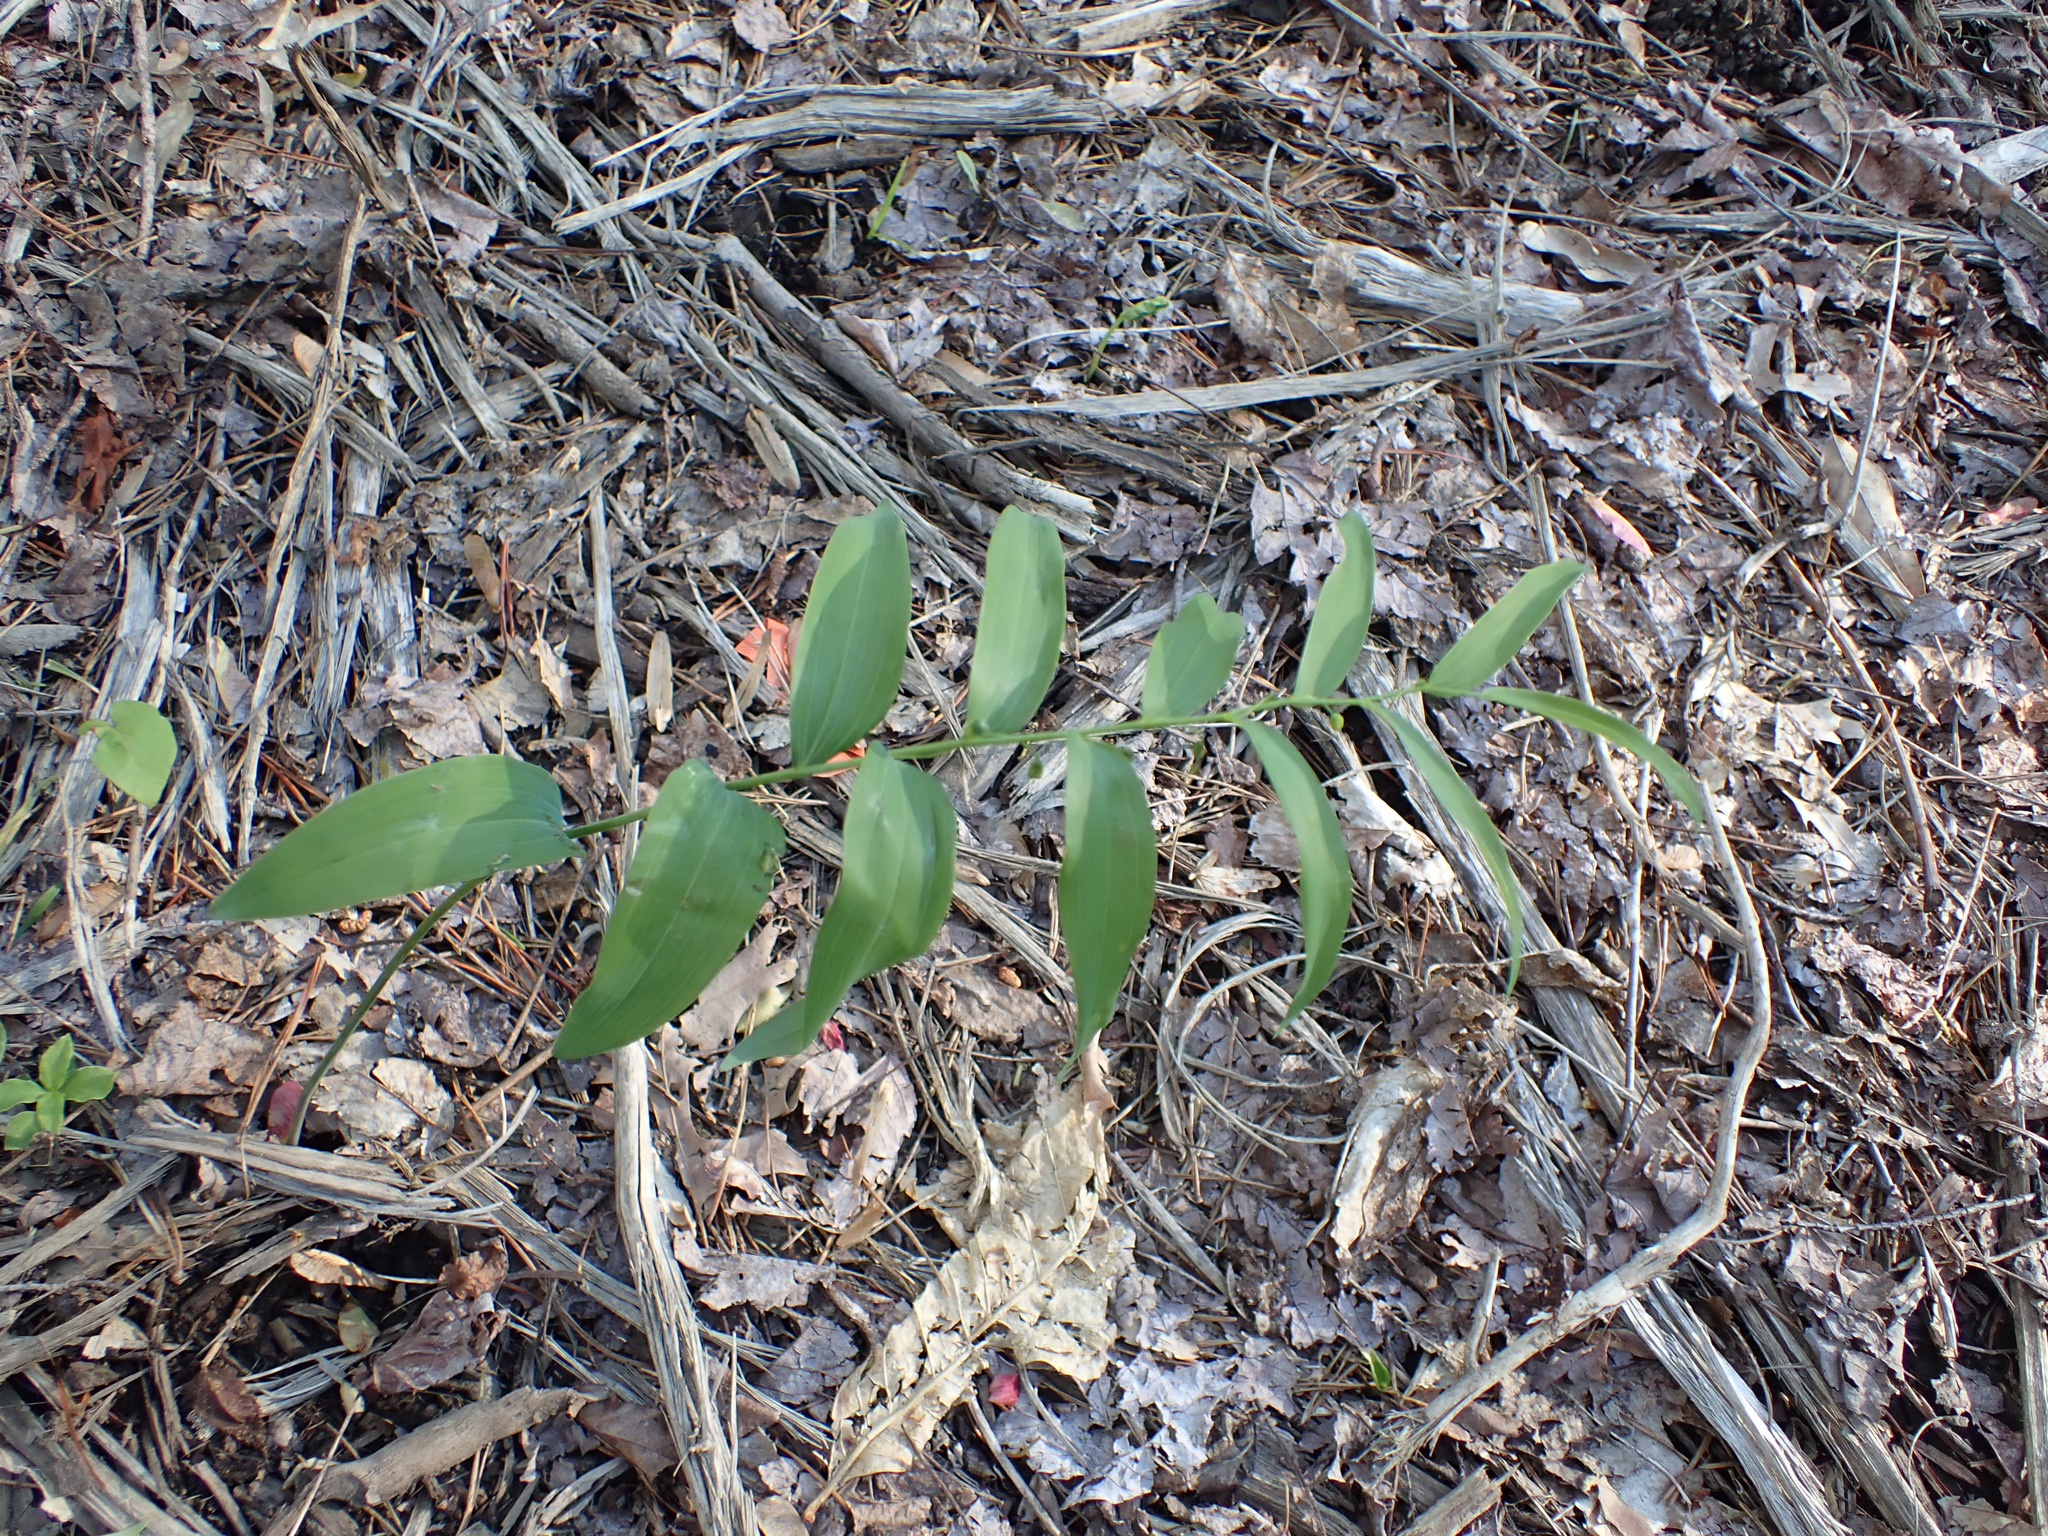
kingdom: Plantae
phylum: Tracheophyta
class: Liliopsida
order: Asparagales
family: Asparagaceae
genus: Polygonatum
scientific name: Polygonatum biflorum
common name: American solomon's-seal
